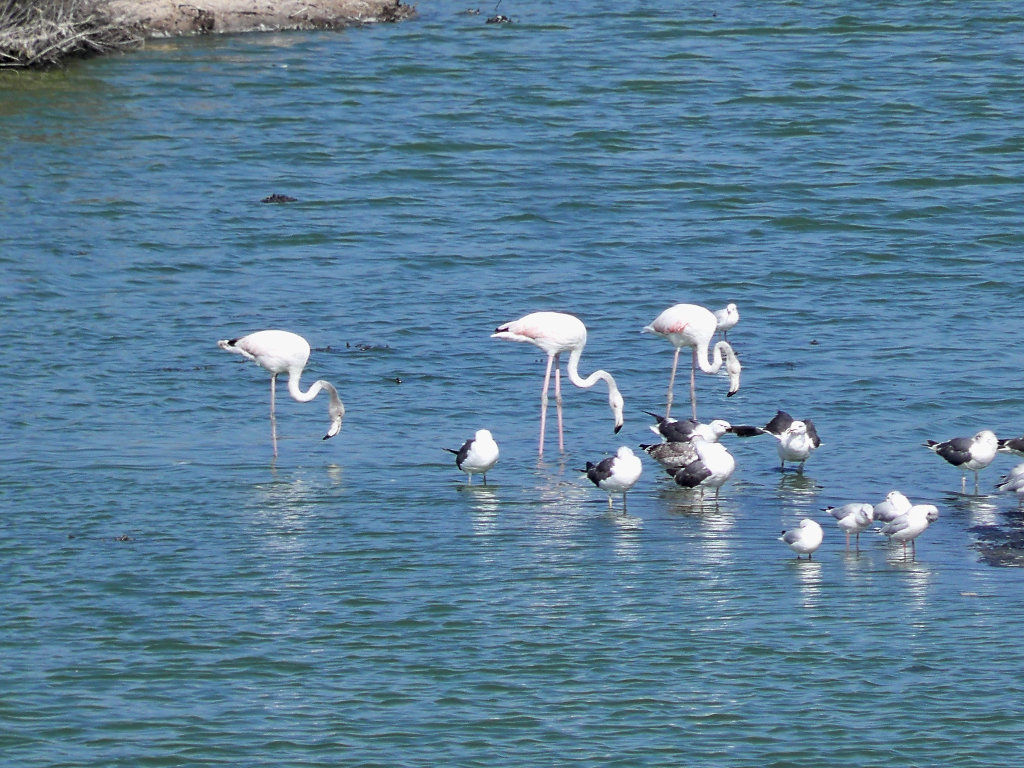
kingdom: Animalia
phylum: Chordata
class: Aves
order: Phoenicopteriformes
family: Phoenicopteridae
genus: Phoenicopterus
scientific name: Phoenicopterus roseus
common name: Greater flamingo
